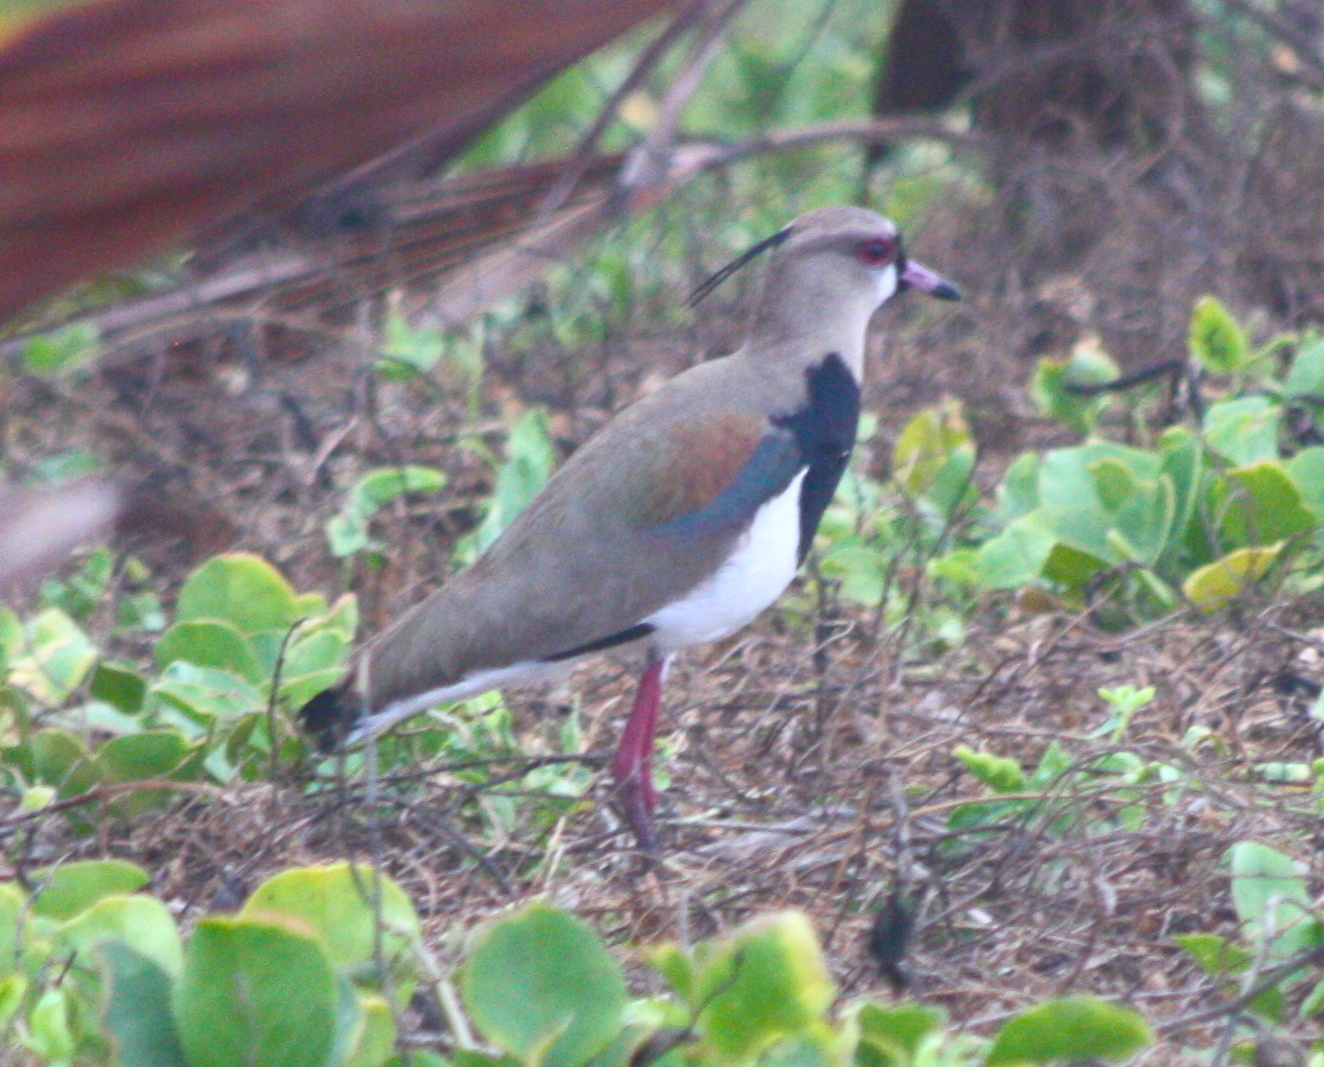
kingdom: Animalia
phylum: Chordata
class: Aves
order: Charadriiformes
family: Charadriidae
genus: Vanellus
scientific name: Vanellus chilensis
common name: Southern lapwing
